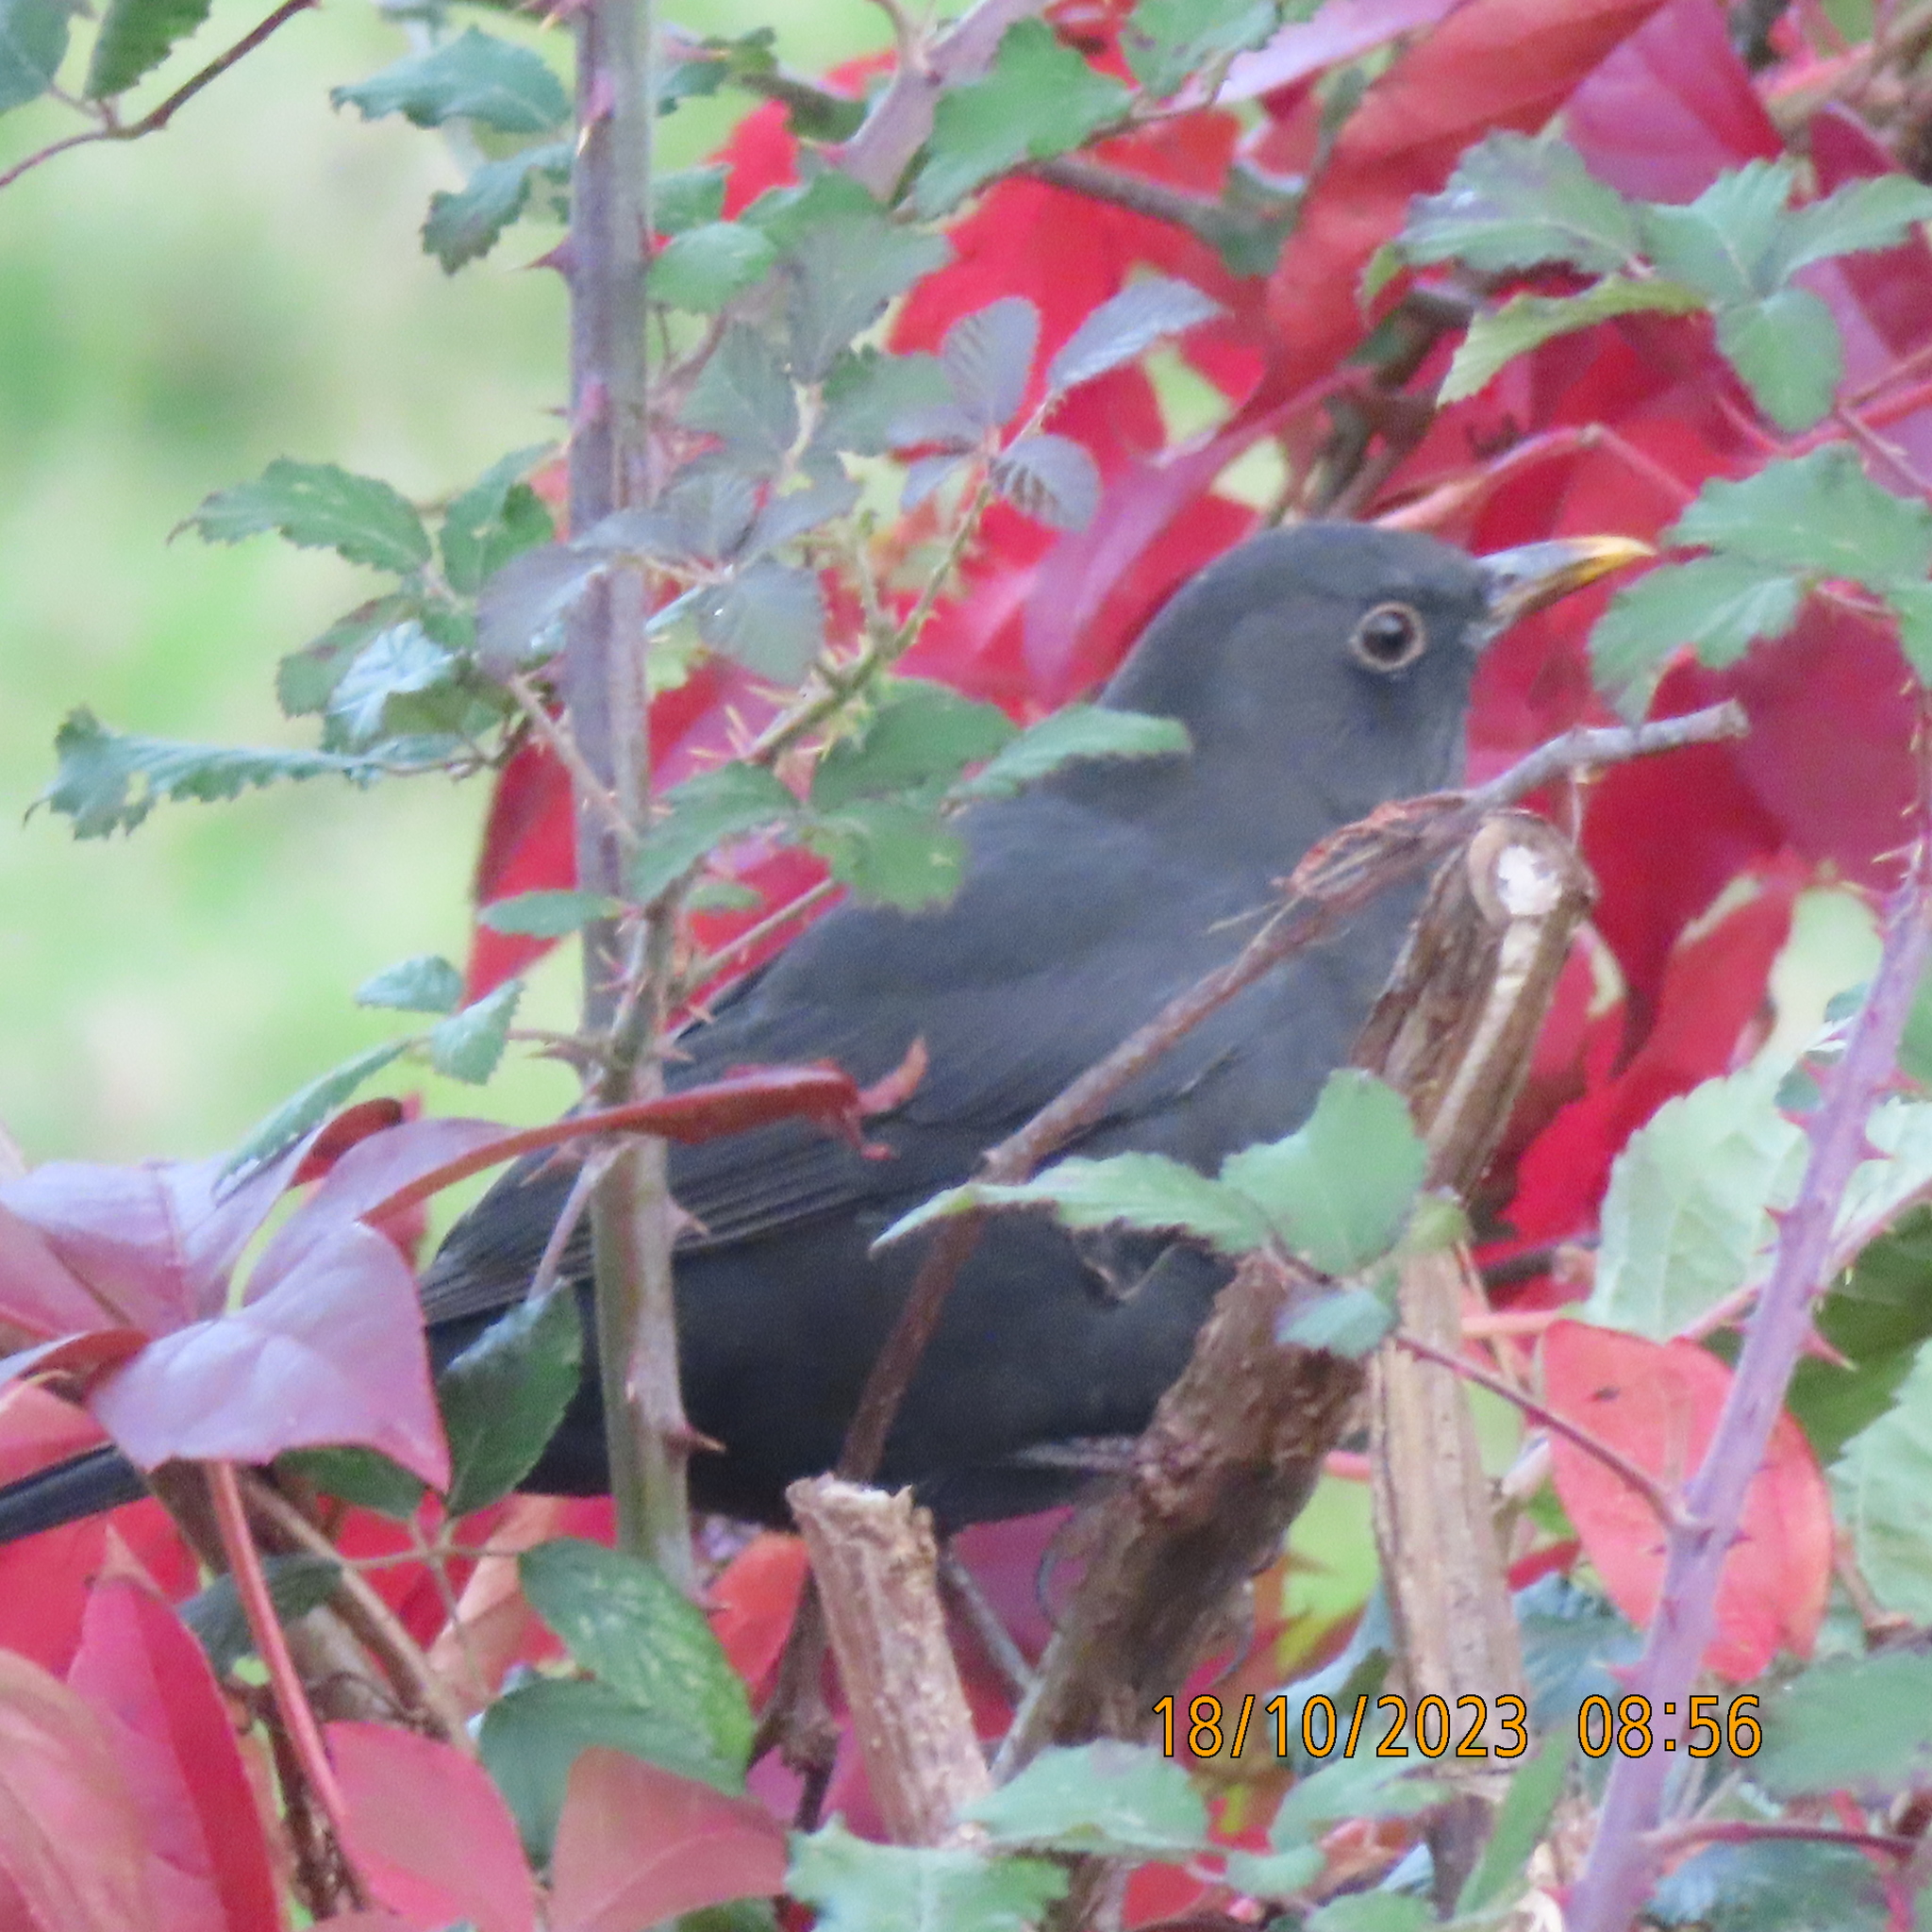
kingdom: Animalia
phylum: Chordata
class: Aves
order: Passeriformes
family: Turdidae
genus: Turdus
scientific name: Turdus merula
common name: Common blackbird
